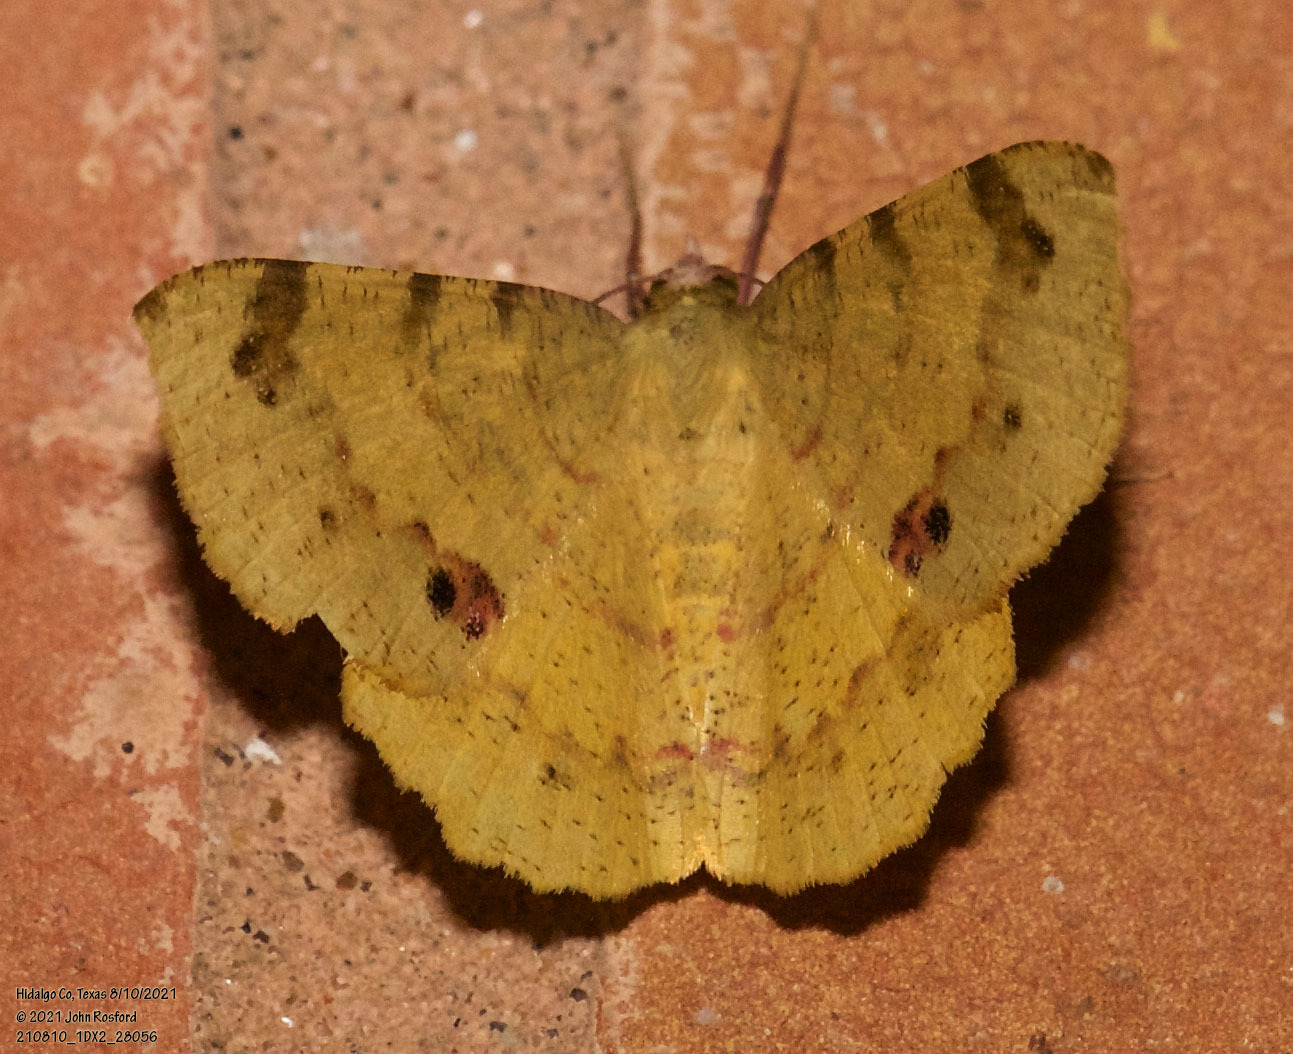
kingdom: Animalia
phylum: Arthropoda
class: Insecta
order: Lepidoptera
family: Geometridae
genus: Erastria
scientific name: Erastria decrepitaria
